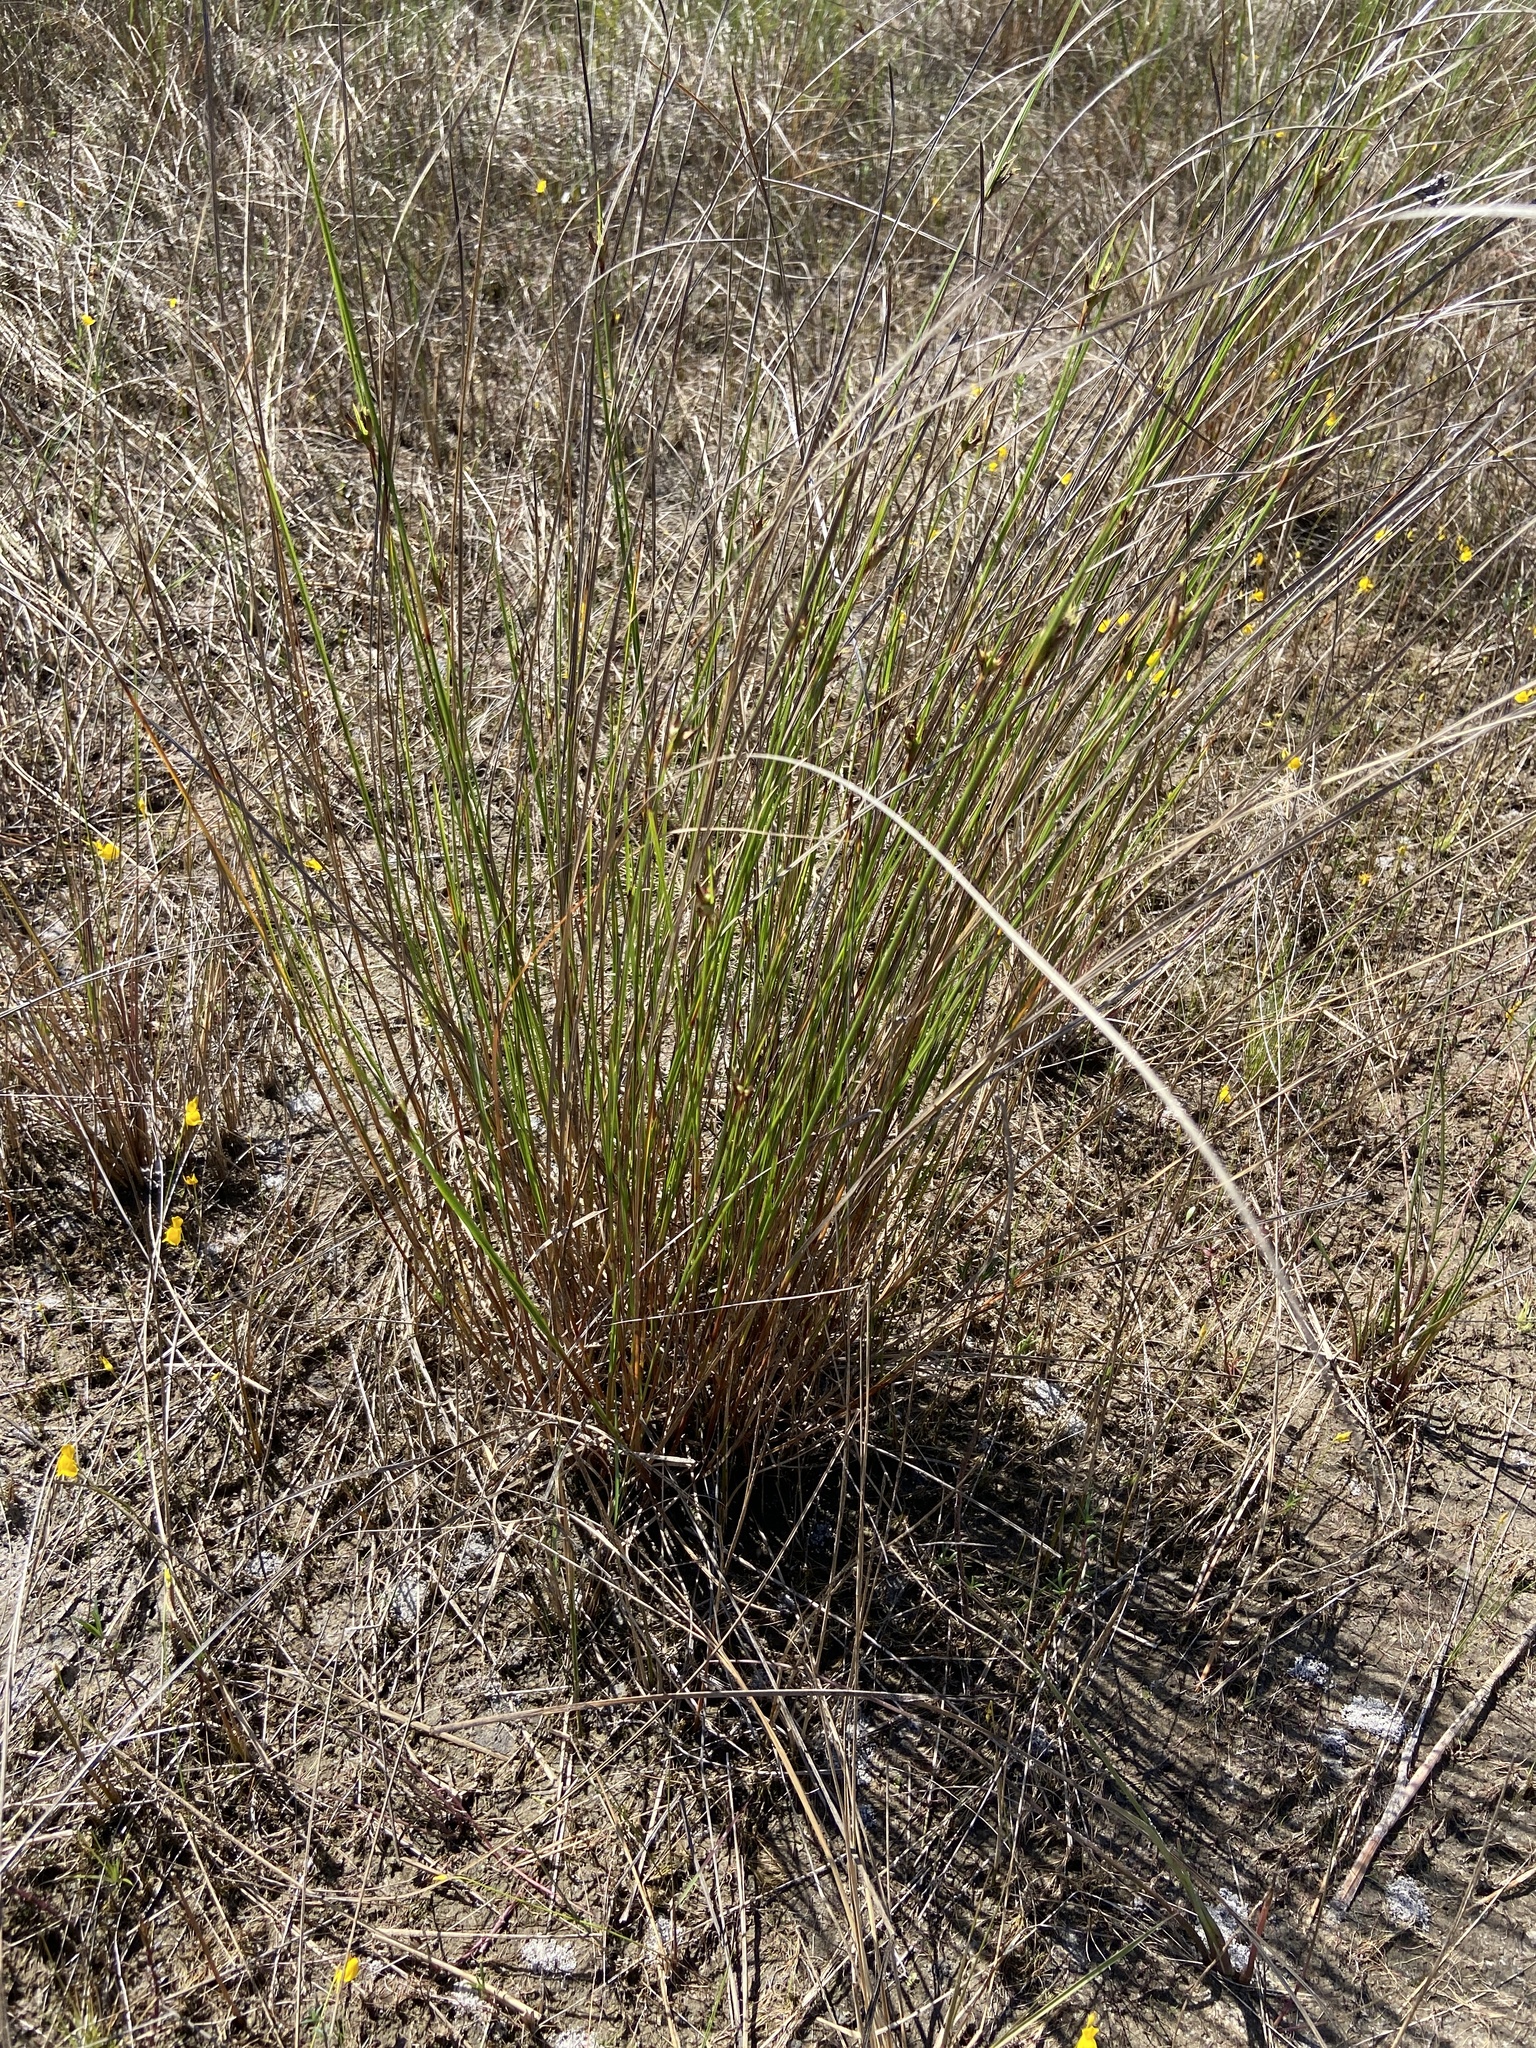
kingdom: Plantae
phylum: Tracheophyta
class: Liliopsida
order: Poales
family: Cyperaceae
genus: Scleria
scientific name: Scleria baldwinii
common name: Baldwin's nutrush
